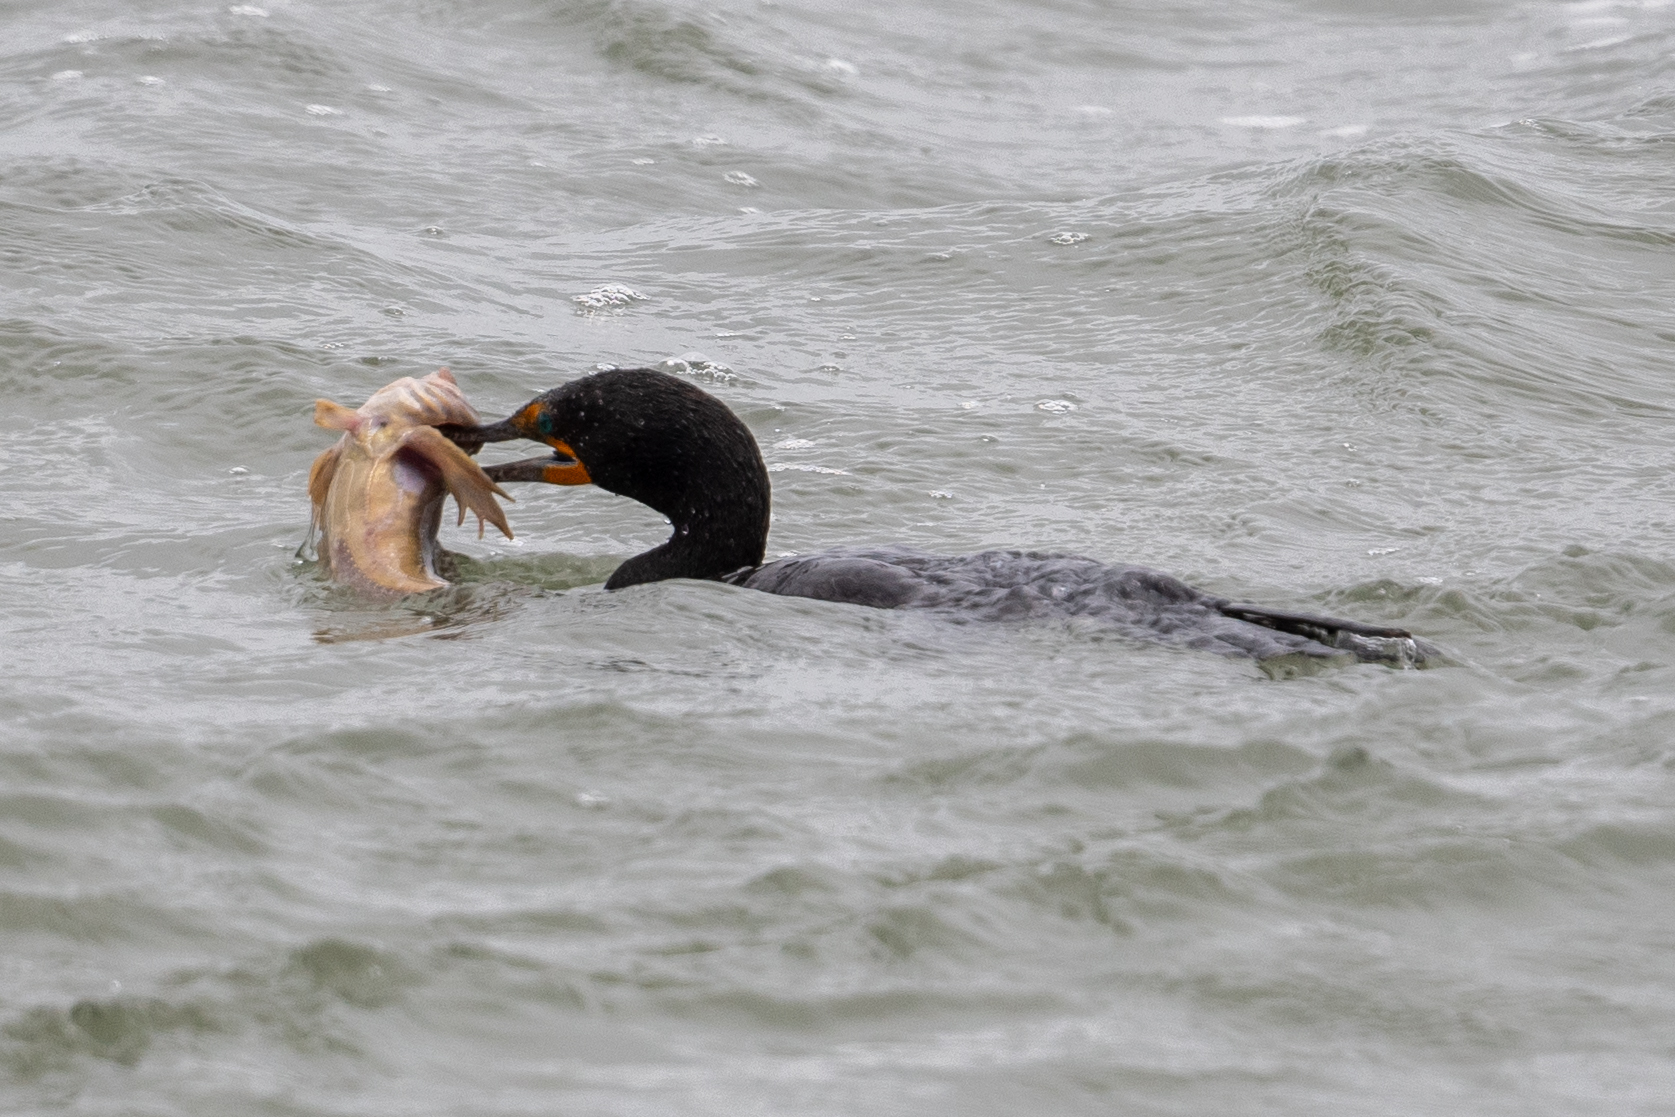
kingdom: Animalia
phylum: Chordata
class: Aves
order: Suliformes
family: Phalacrocoracidae
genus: Phalacrocorax
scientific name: Phalacrocorax auritus
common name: Double-crested cormorant
